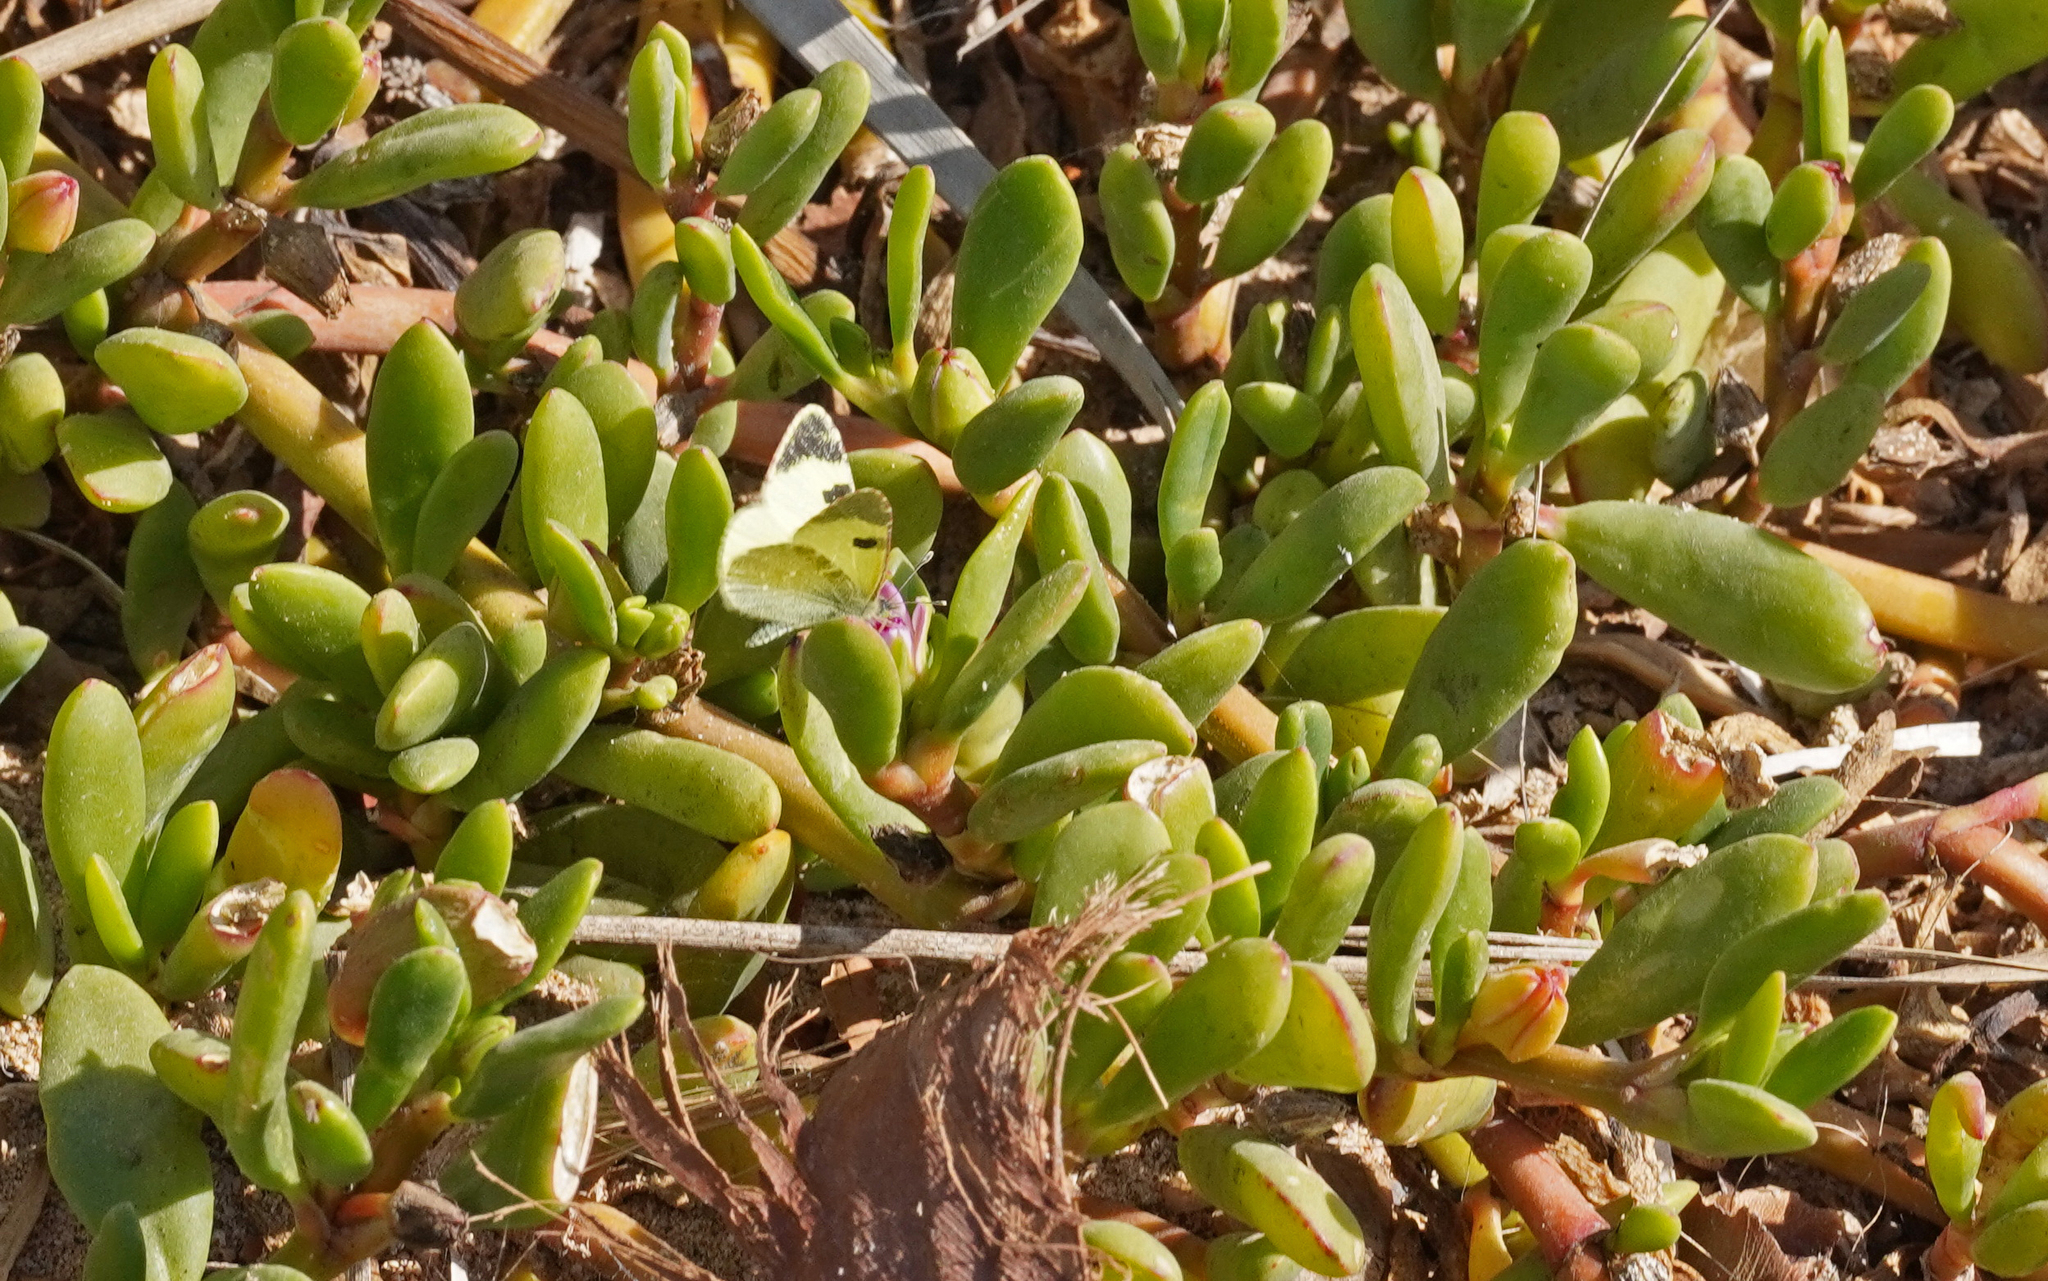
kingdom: Animalia
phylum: Arthropoda
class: Insecta
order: Lepidoptera
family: Pieridae
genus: Elphinstonia
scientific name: Elphinstonia charlonia
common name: Greenish black-tip
